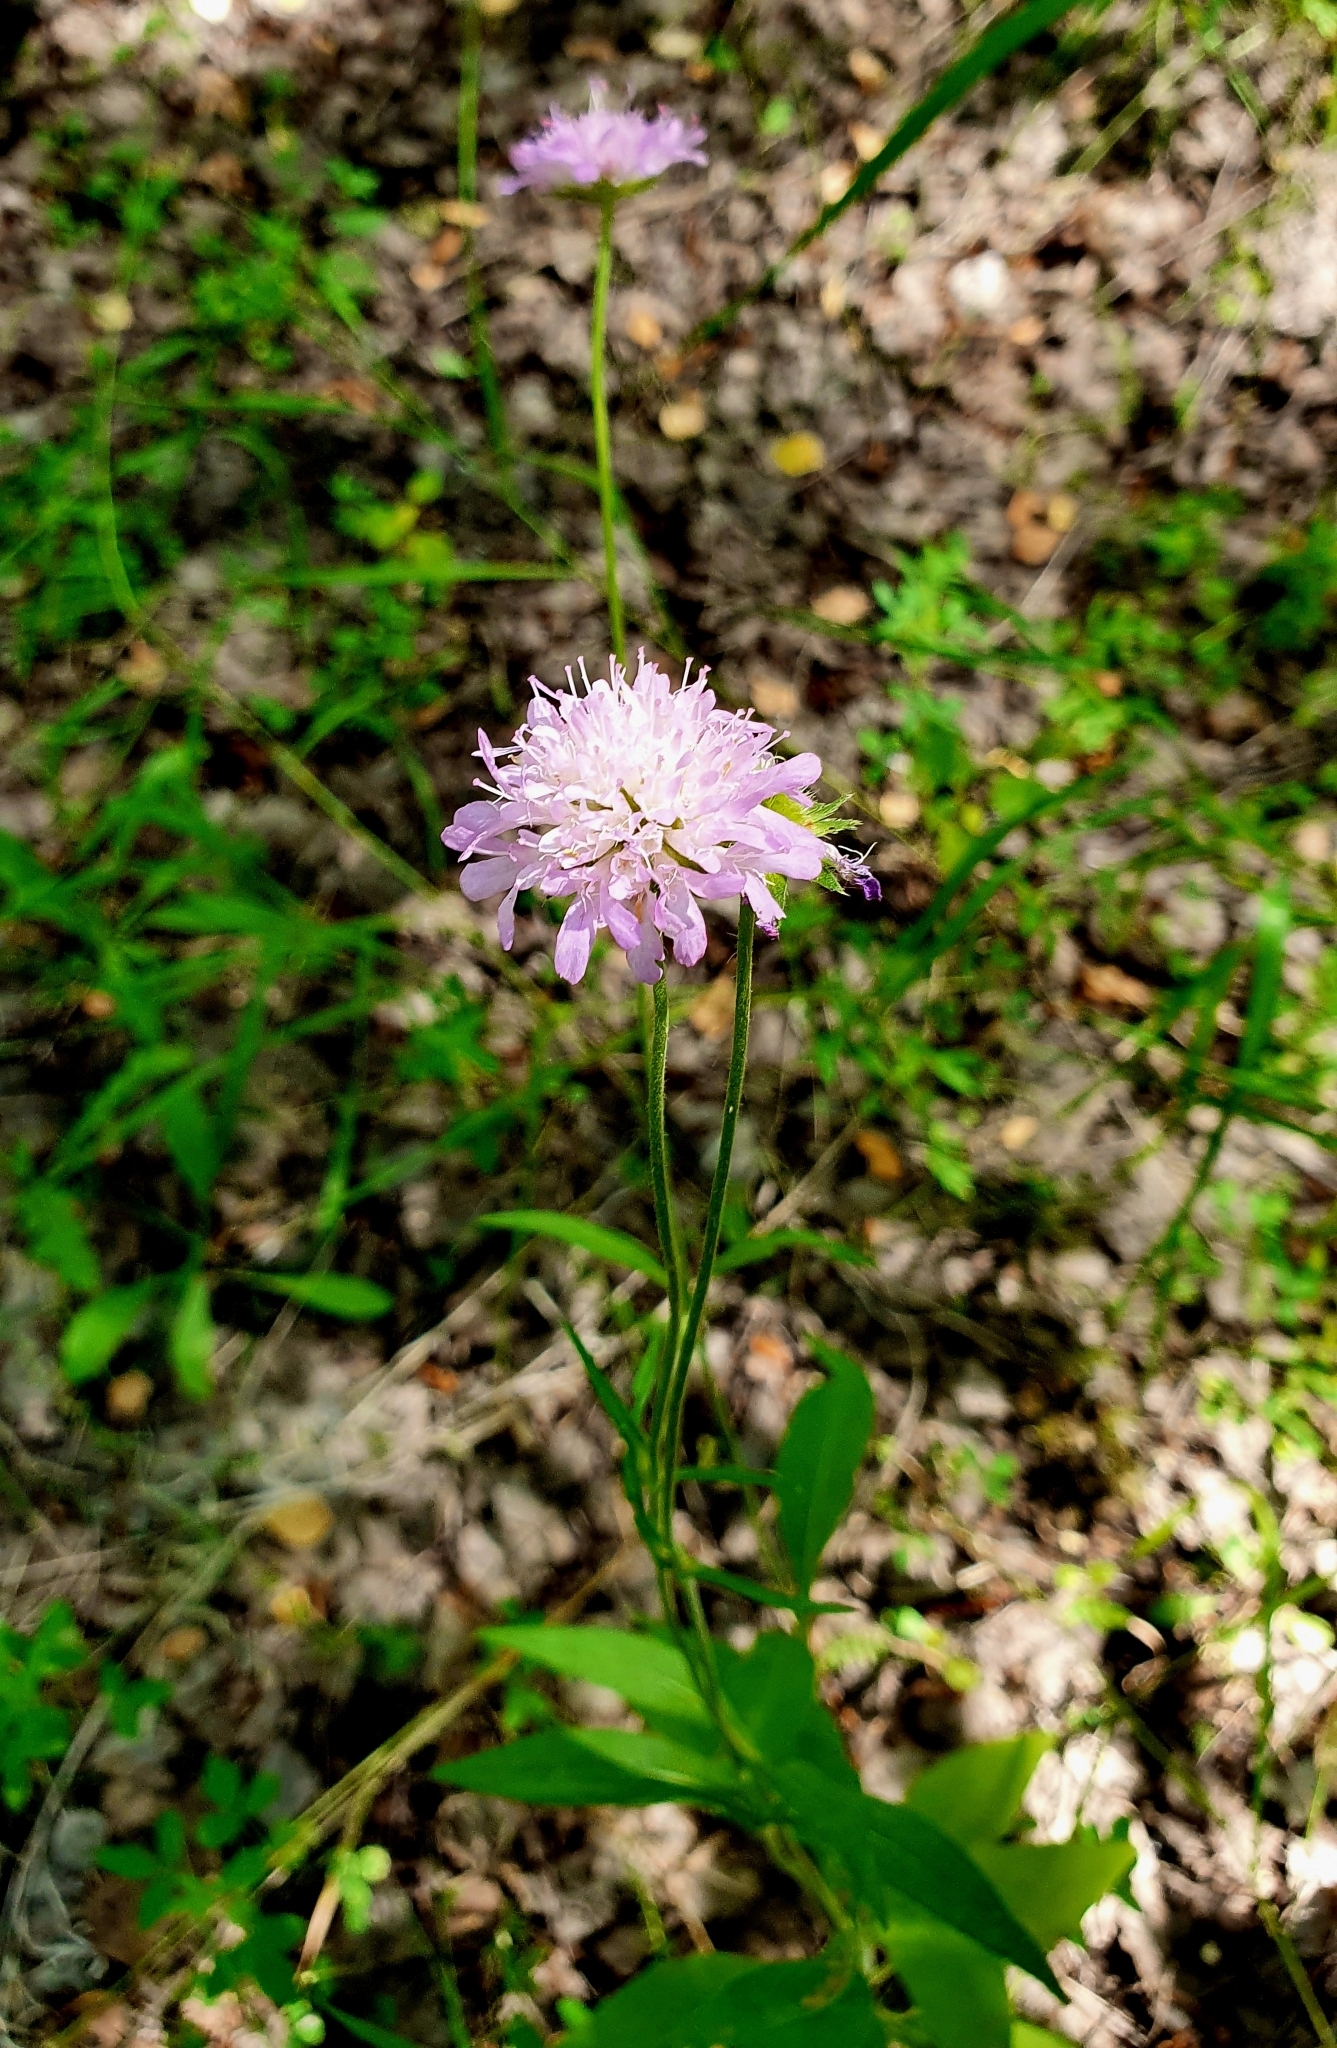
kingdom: Plantae
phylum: Tracheophyta
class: Magnoliopsida
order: Dipsacales
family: Caprifoliaceae
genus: Knautia
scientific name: Knautia arvensis
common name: Field scabiosa
